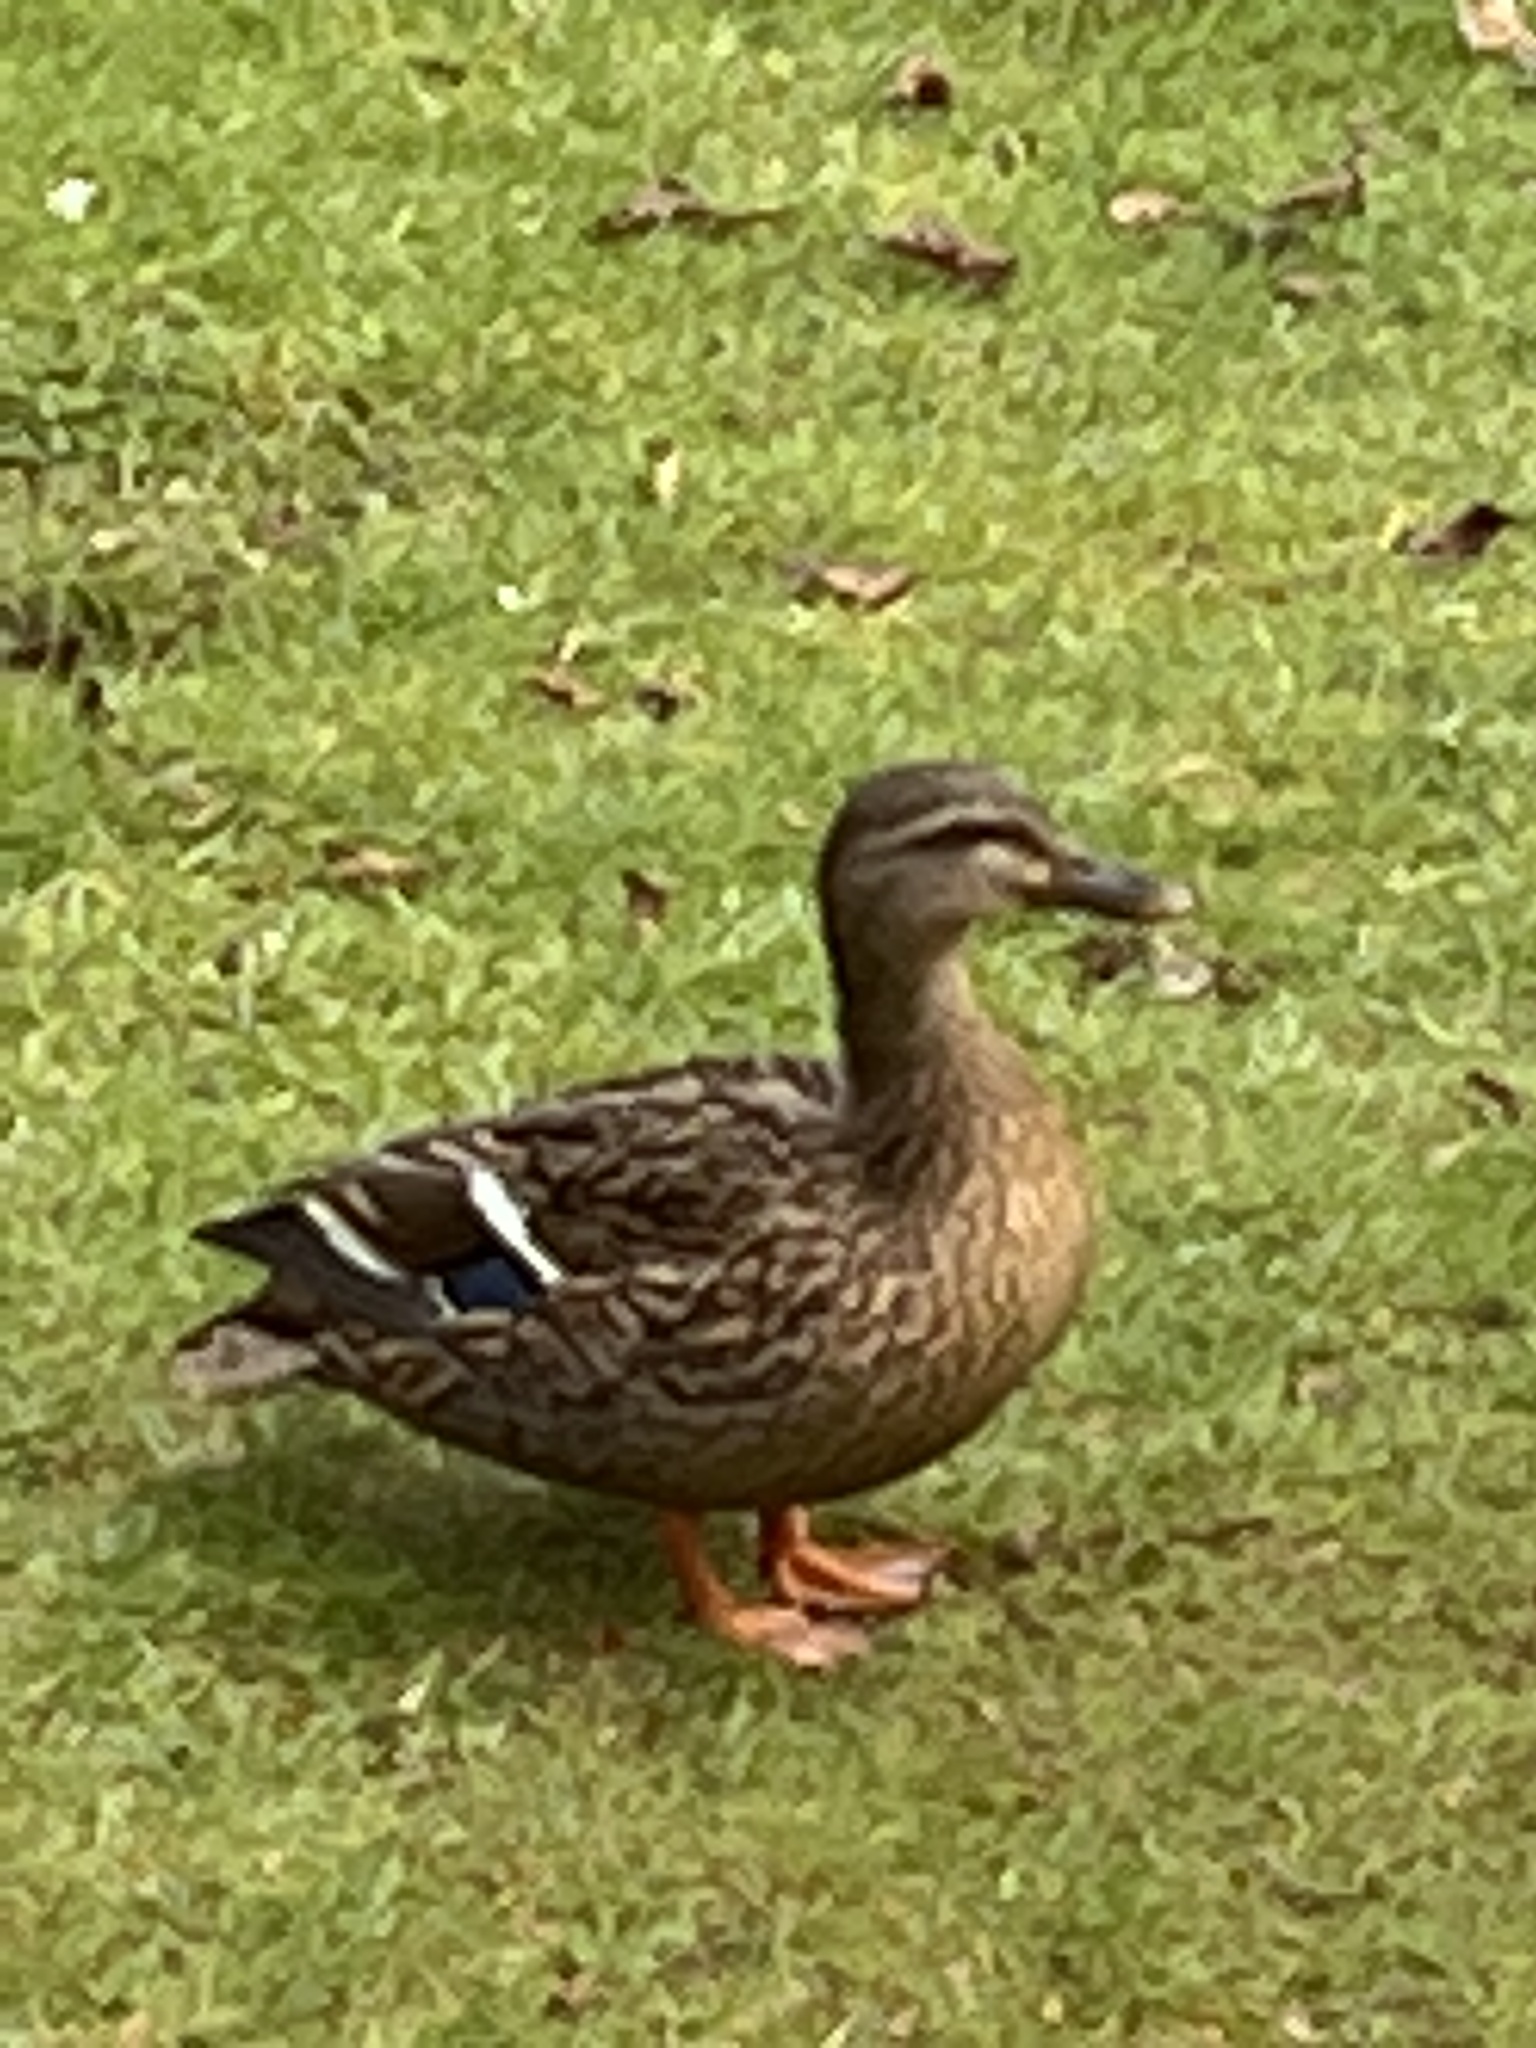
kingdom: Animalia
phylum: Chordata
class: Aves
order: Anseriformes
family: Anatidae
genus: Anas
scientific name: Anas platyrhynchos
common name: Mallard
